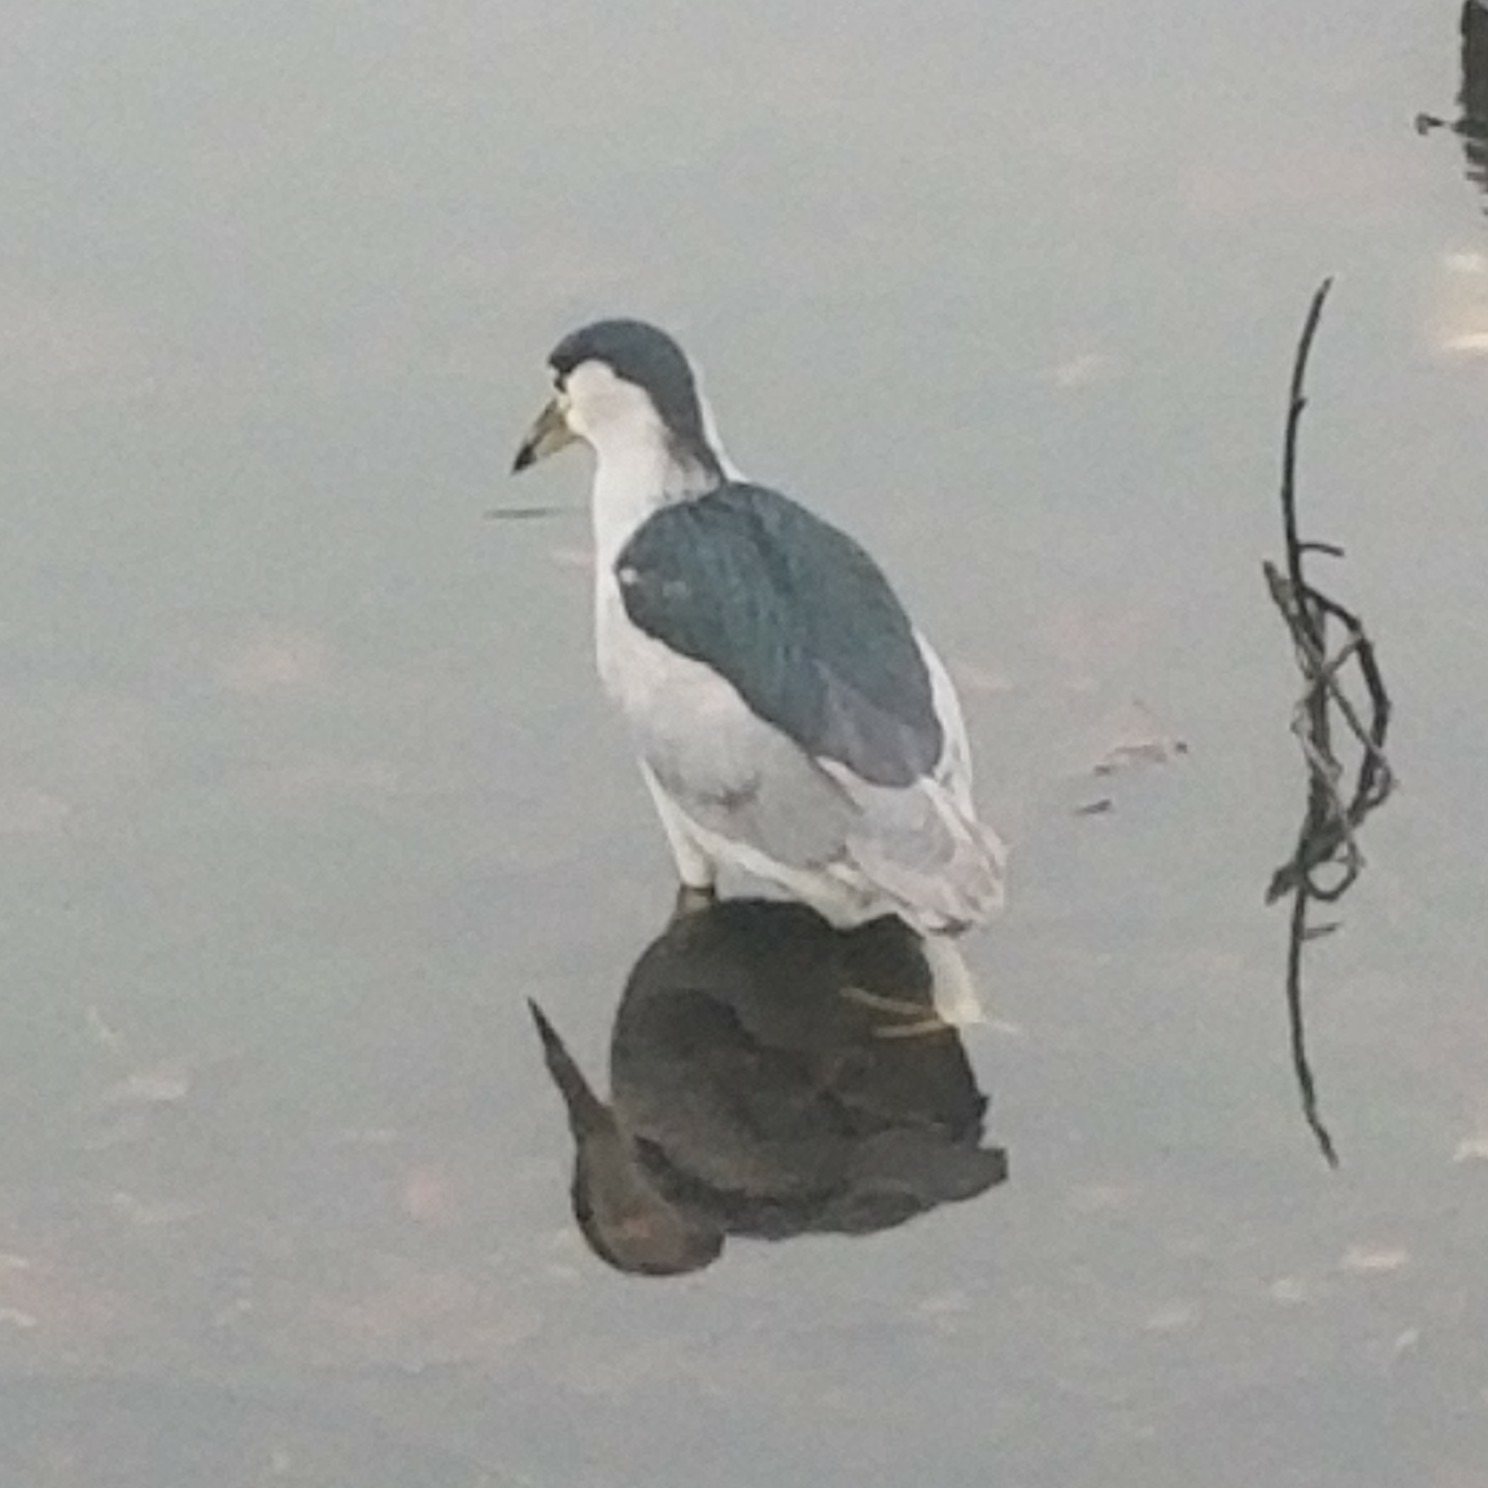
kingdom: Animalia
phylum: Chordata
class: Aves
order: Pelecaniformes
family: Ardeidae
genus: Nycticorax
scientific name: Nycticorax nycticorax
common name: Black-crowned night heron
